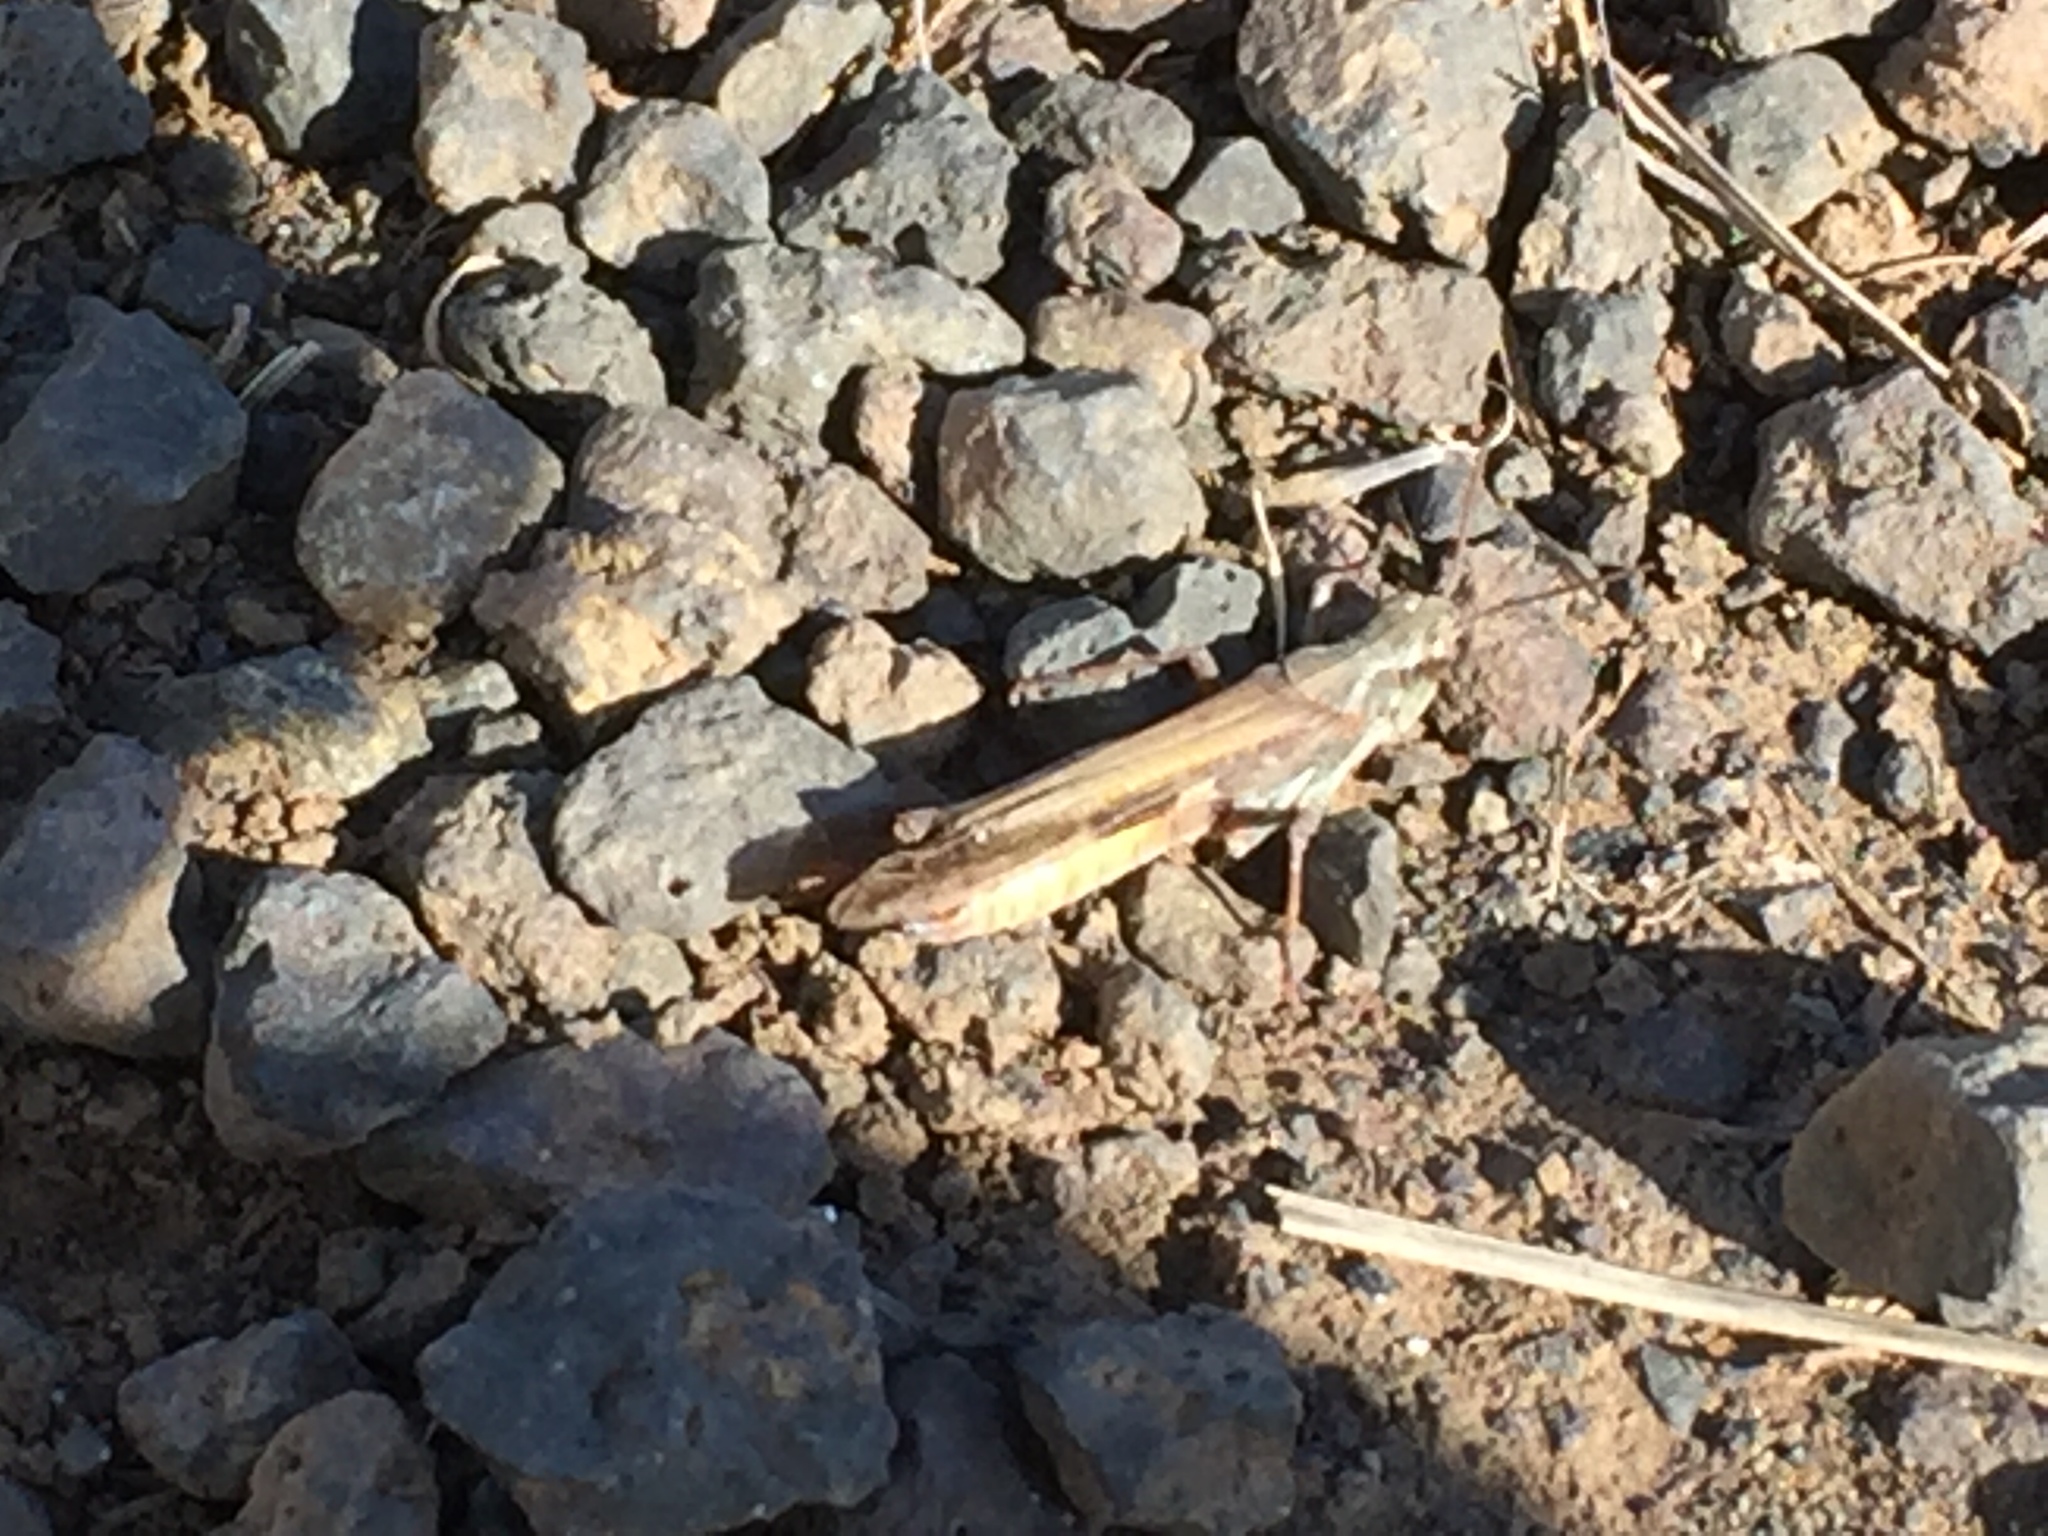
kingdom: Animalia
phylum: Arthropoda
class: Insecta
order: Orthoptera
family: Acrididae
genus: Aiolopus
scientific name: Aiolopus thalassinus
